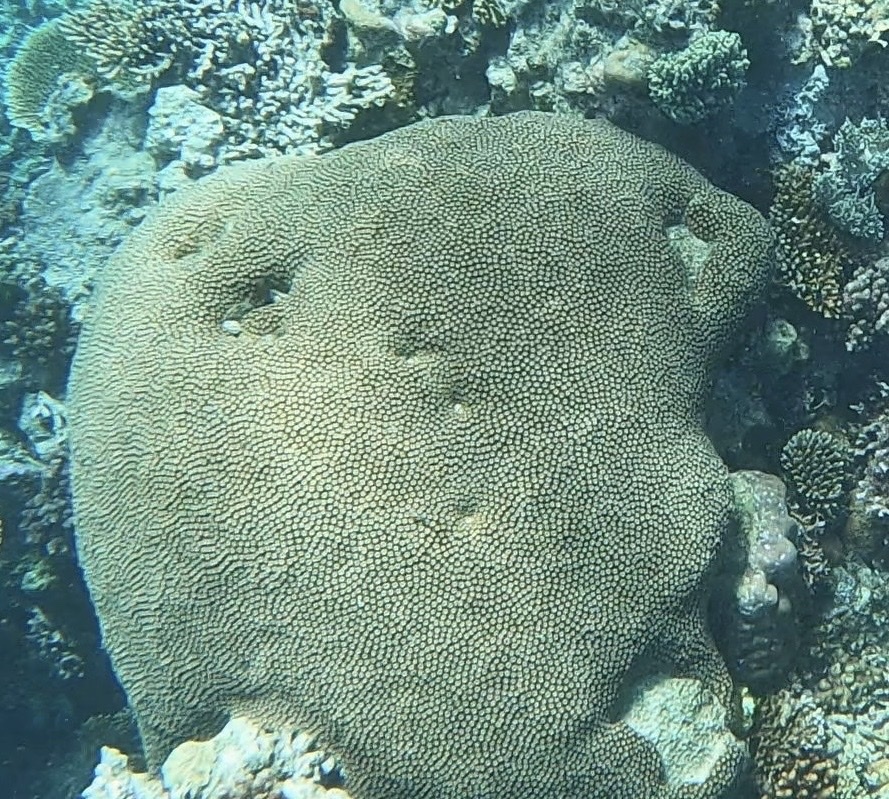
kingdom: Animalia
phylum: Cnidaria
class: Anthozoa
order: Scleractinia
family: Diploastraeidae
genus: Diploastrea
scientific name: Diploastrea heliopora
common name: Double-star coral
